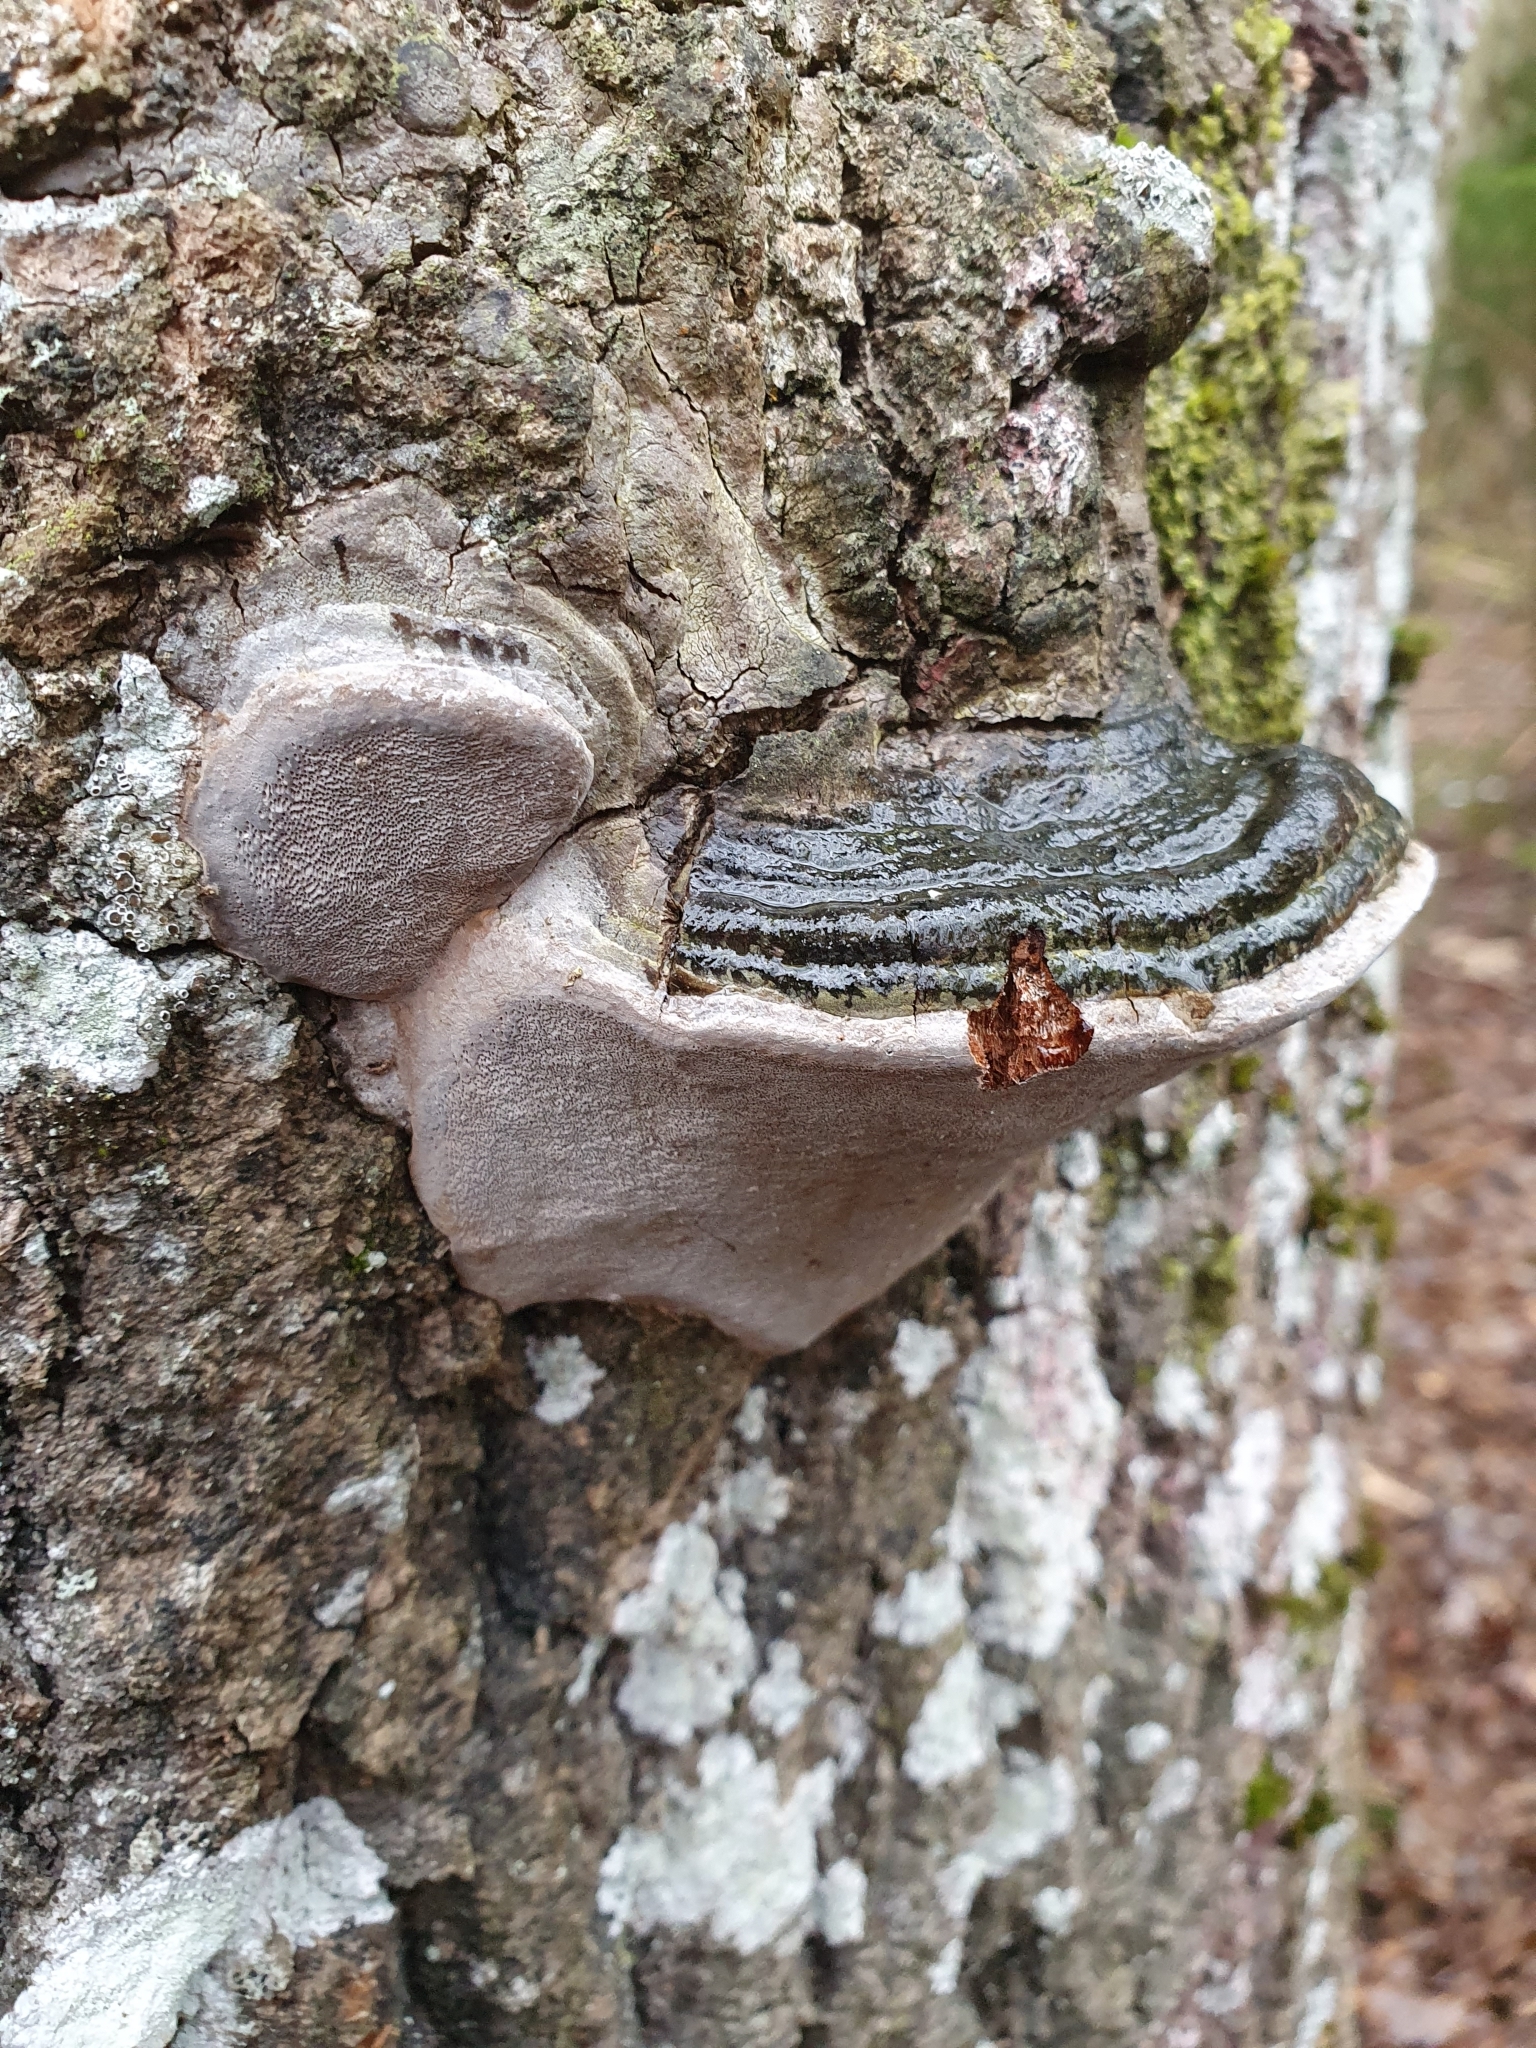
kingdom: Fungi
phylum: Basidiomycota
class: Agaricomycetes
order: Hymenochaetales
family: Hymenochaetaceae
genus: Phellinus
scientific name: Phellinus tremulae
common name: Aspen bracket
